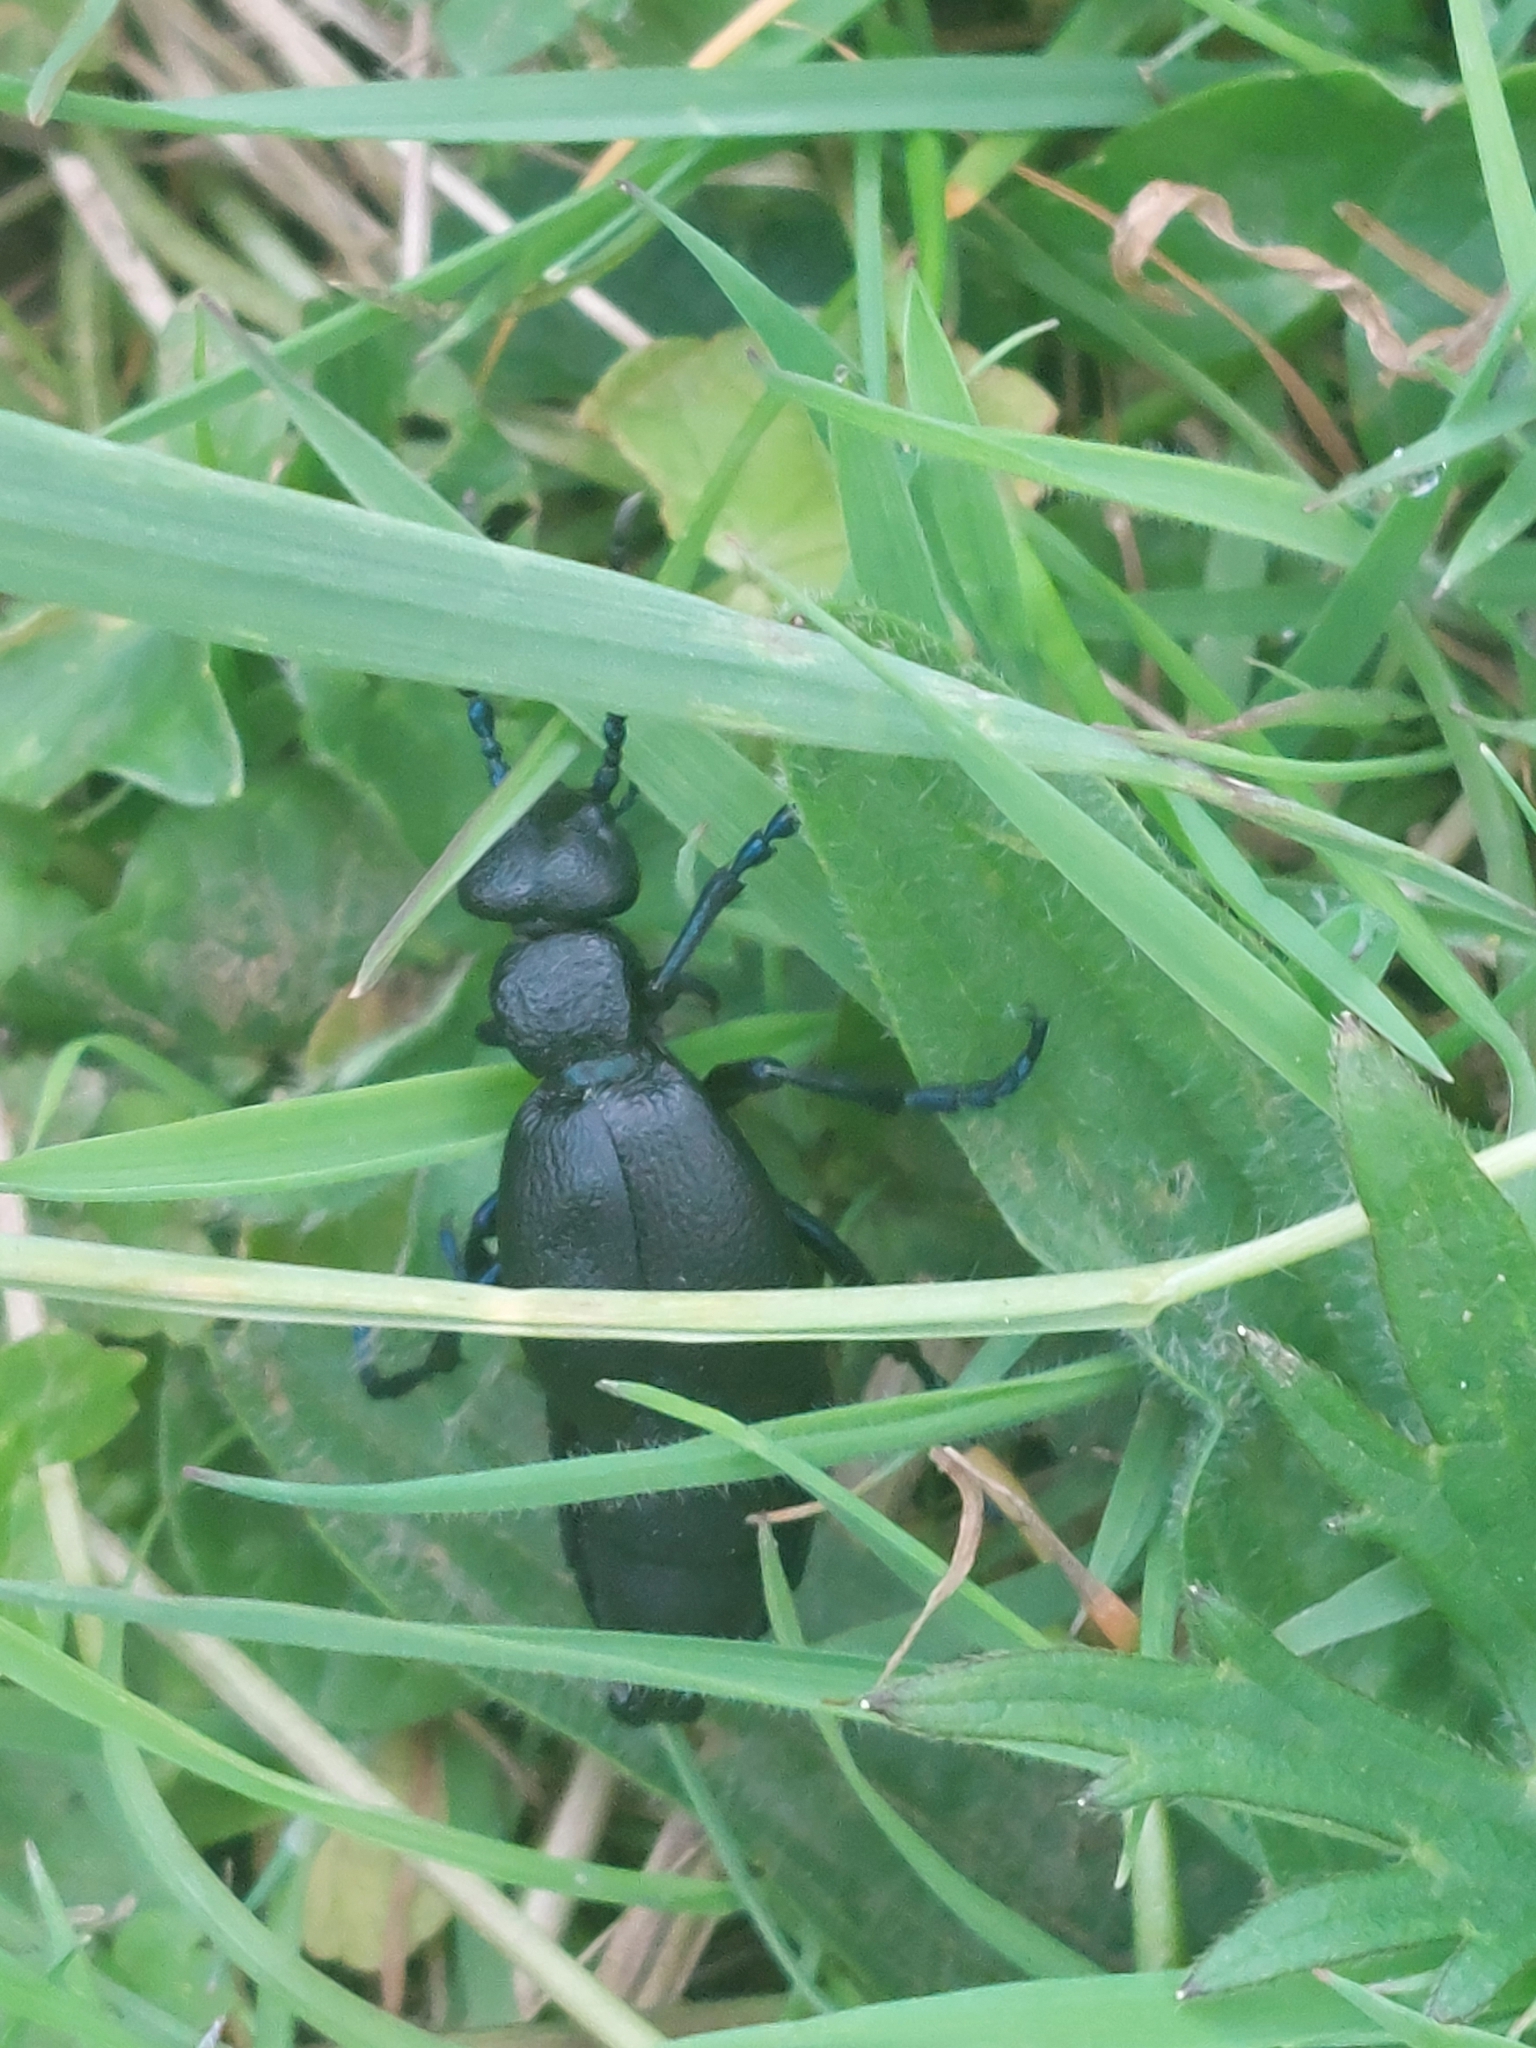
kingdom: Animalia
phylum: Arthropoda
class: Insecta
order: Coleoptera
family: Meloidae
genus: Meloe
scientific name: Meloe proscarabaeus
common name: Black oil-beetle
